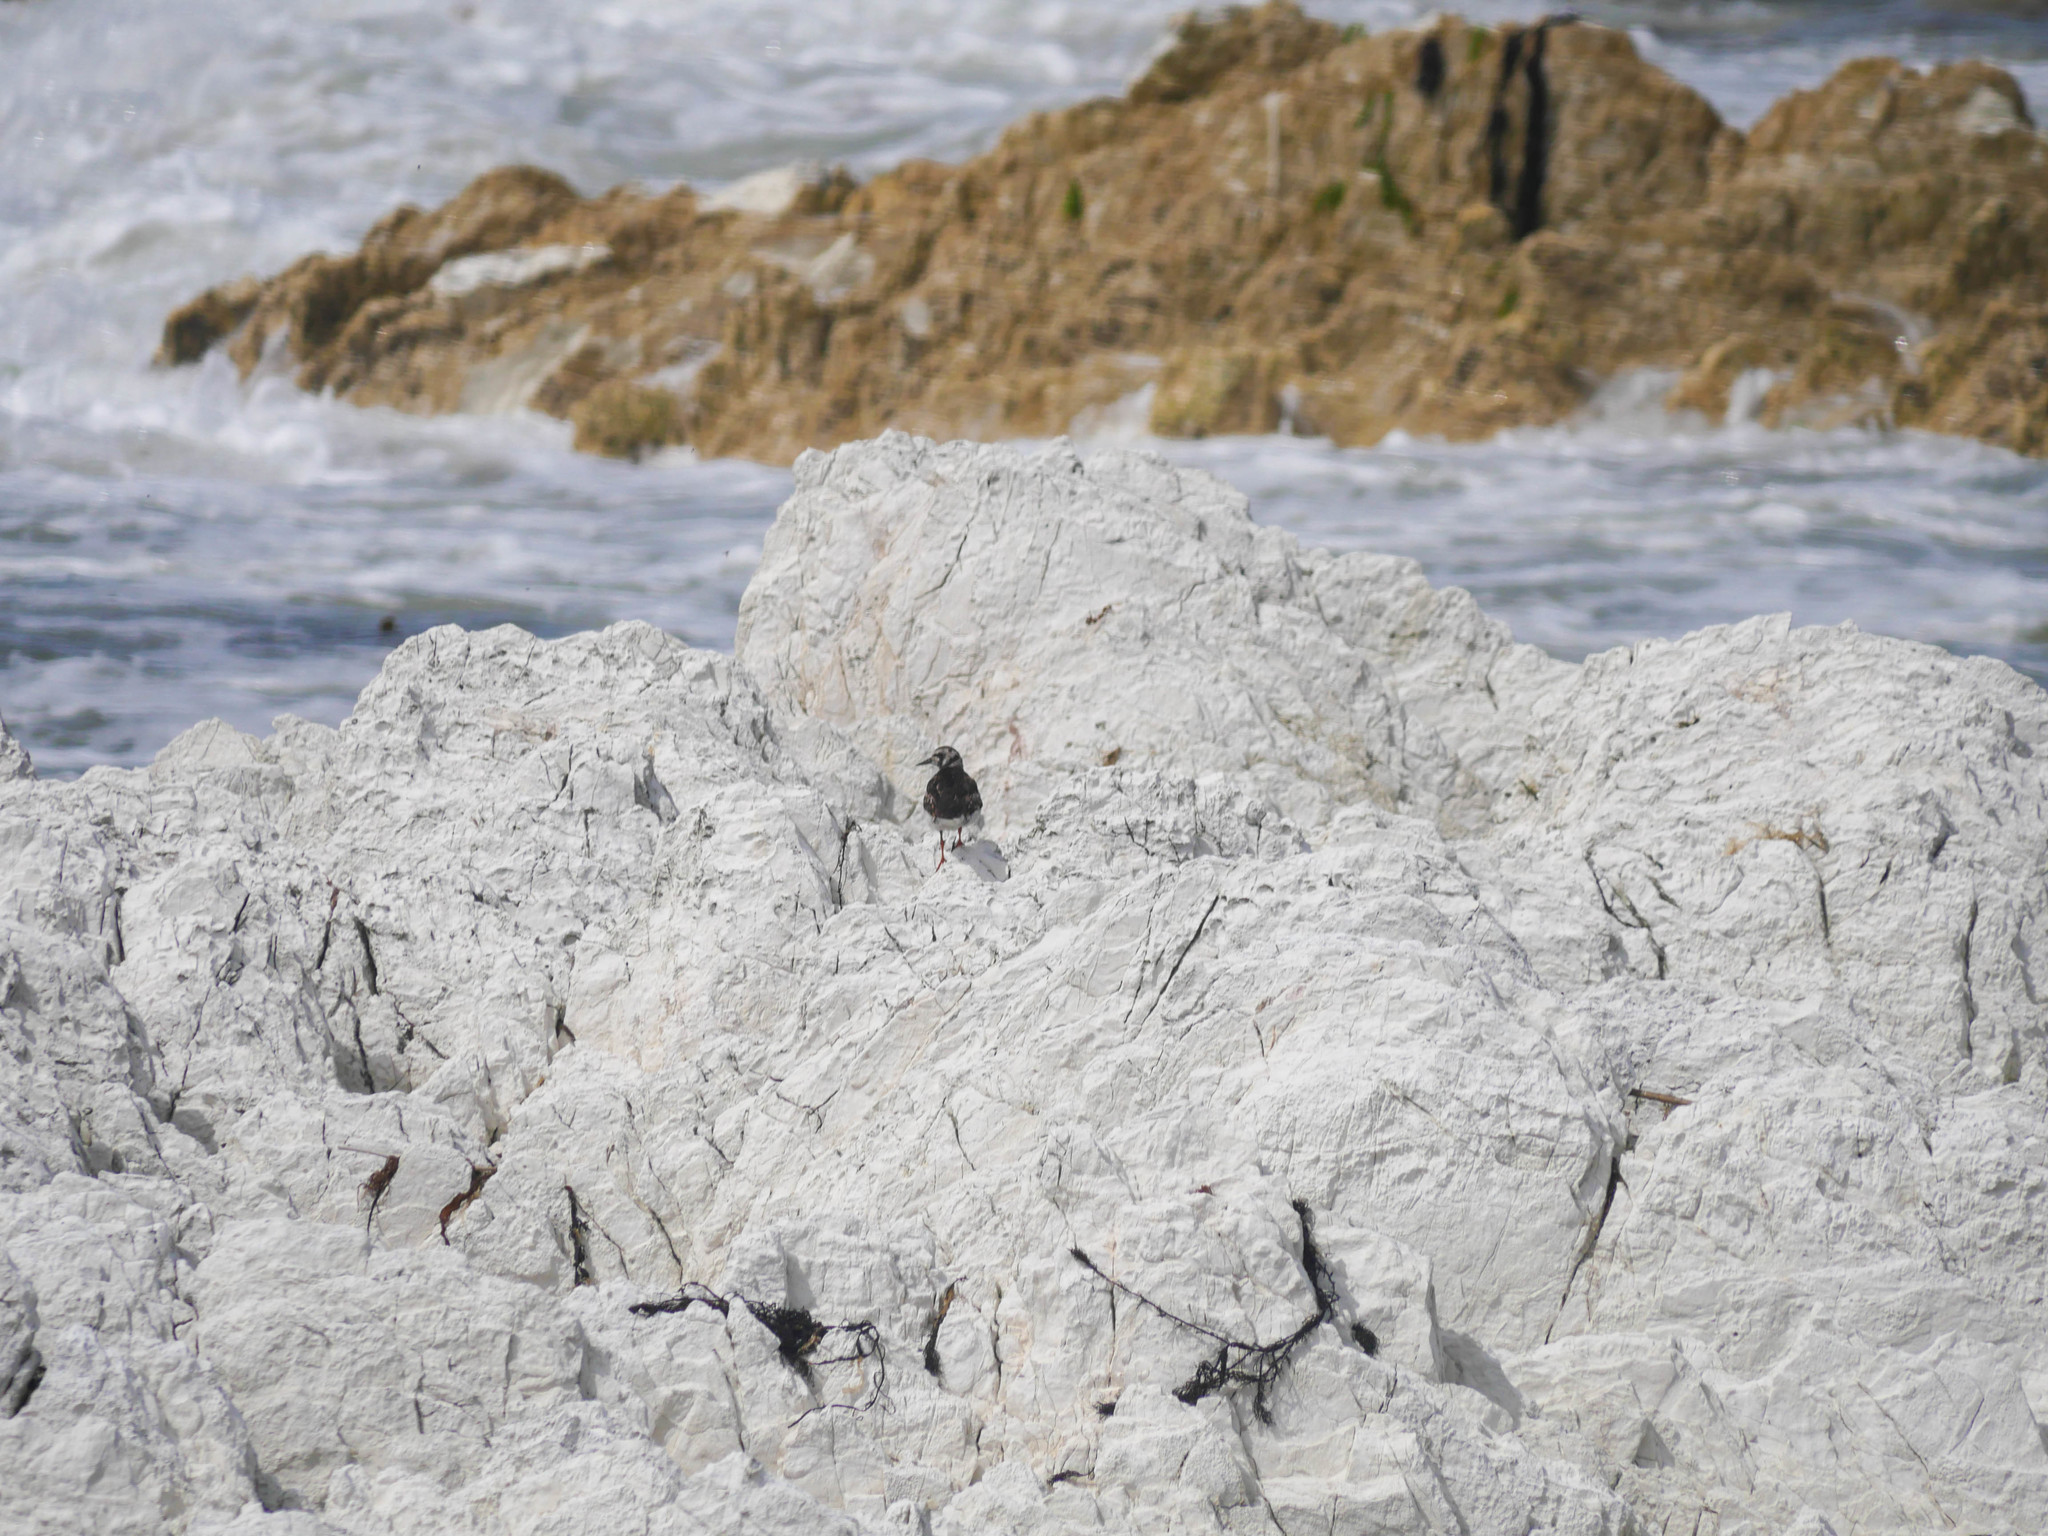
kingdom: Animalia
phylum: Chordata
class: Aves
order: Charadriiformes
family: Scolopacidae
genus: Arenaria
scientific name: Arenaria interpres
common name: Ruddy turnstone
